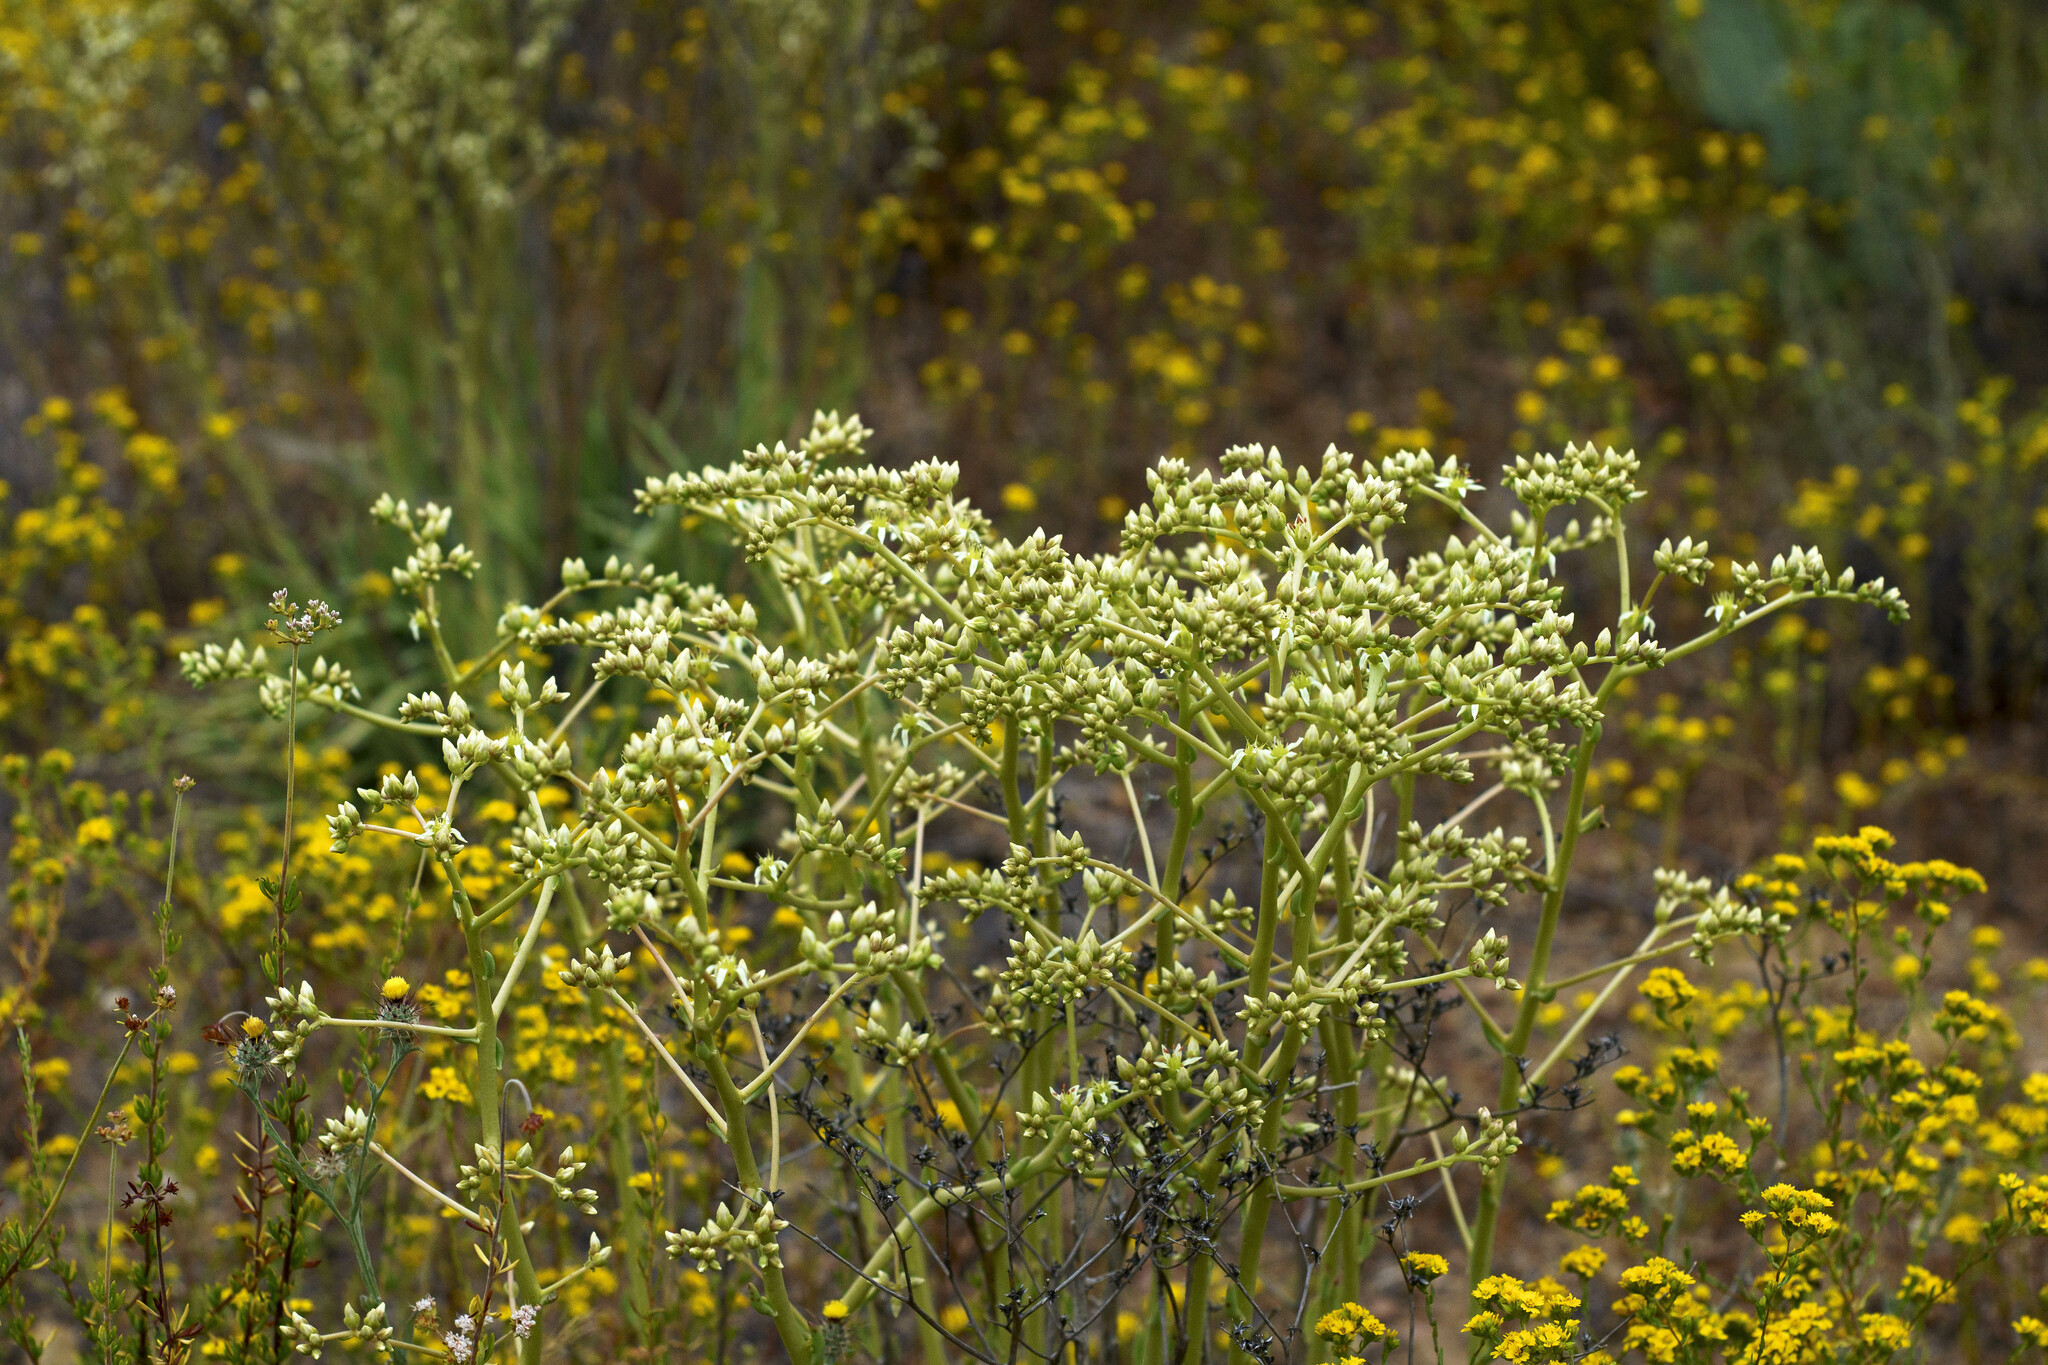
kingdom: Plantae
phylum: Tracheophyta
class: Magnoliopsida
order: Saxifragales
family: Crassulaceae
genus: Dudleya
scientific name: Dudleya edulis
